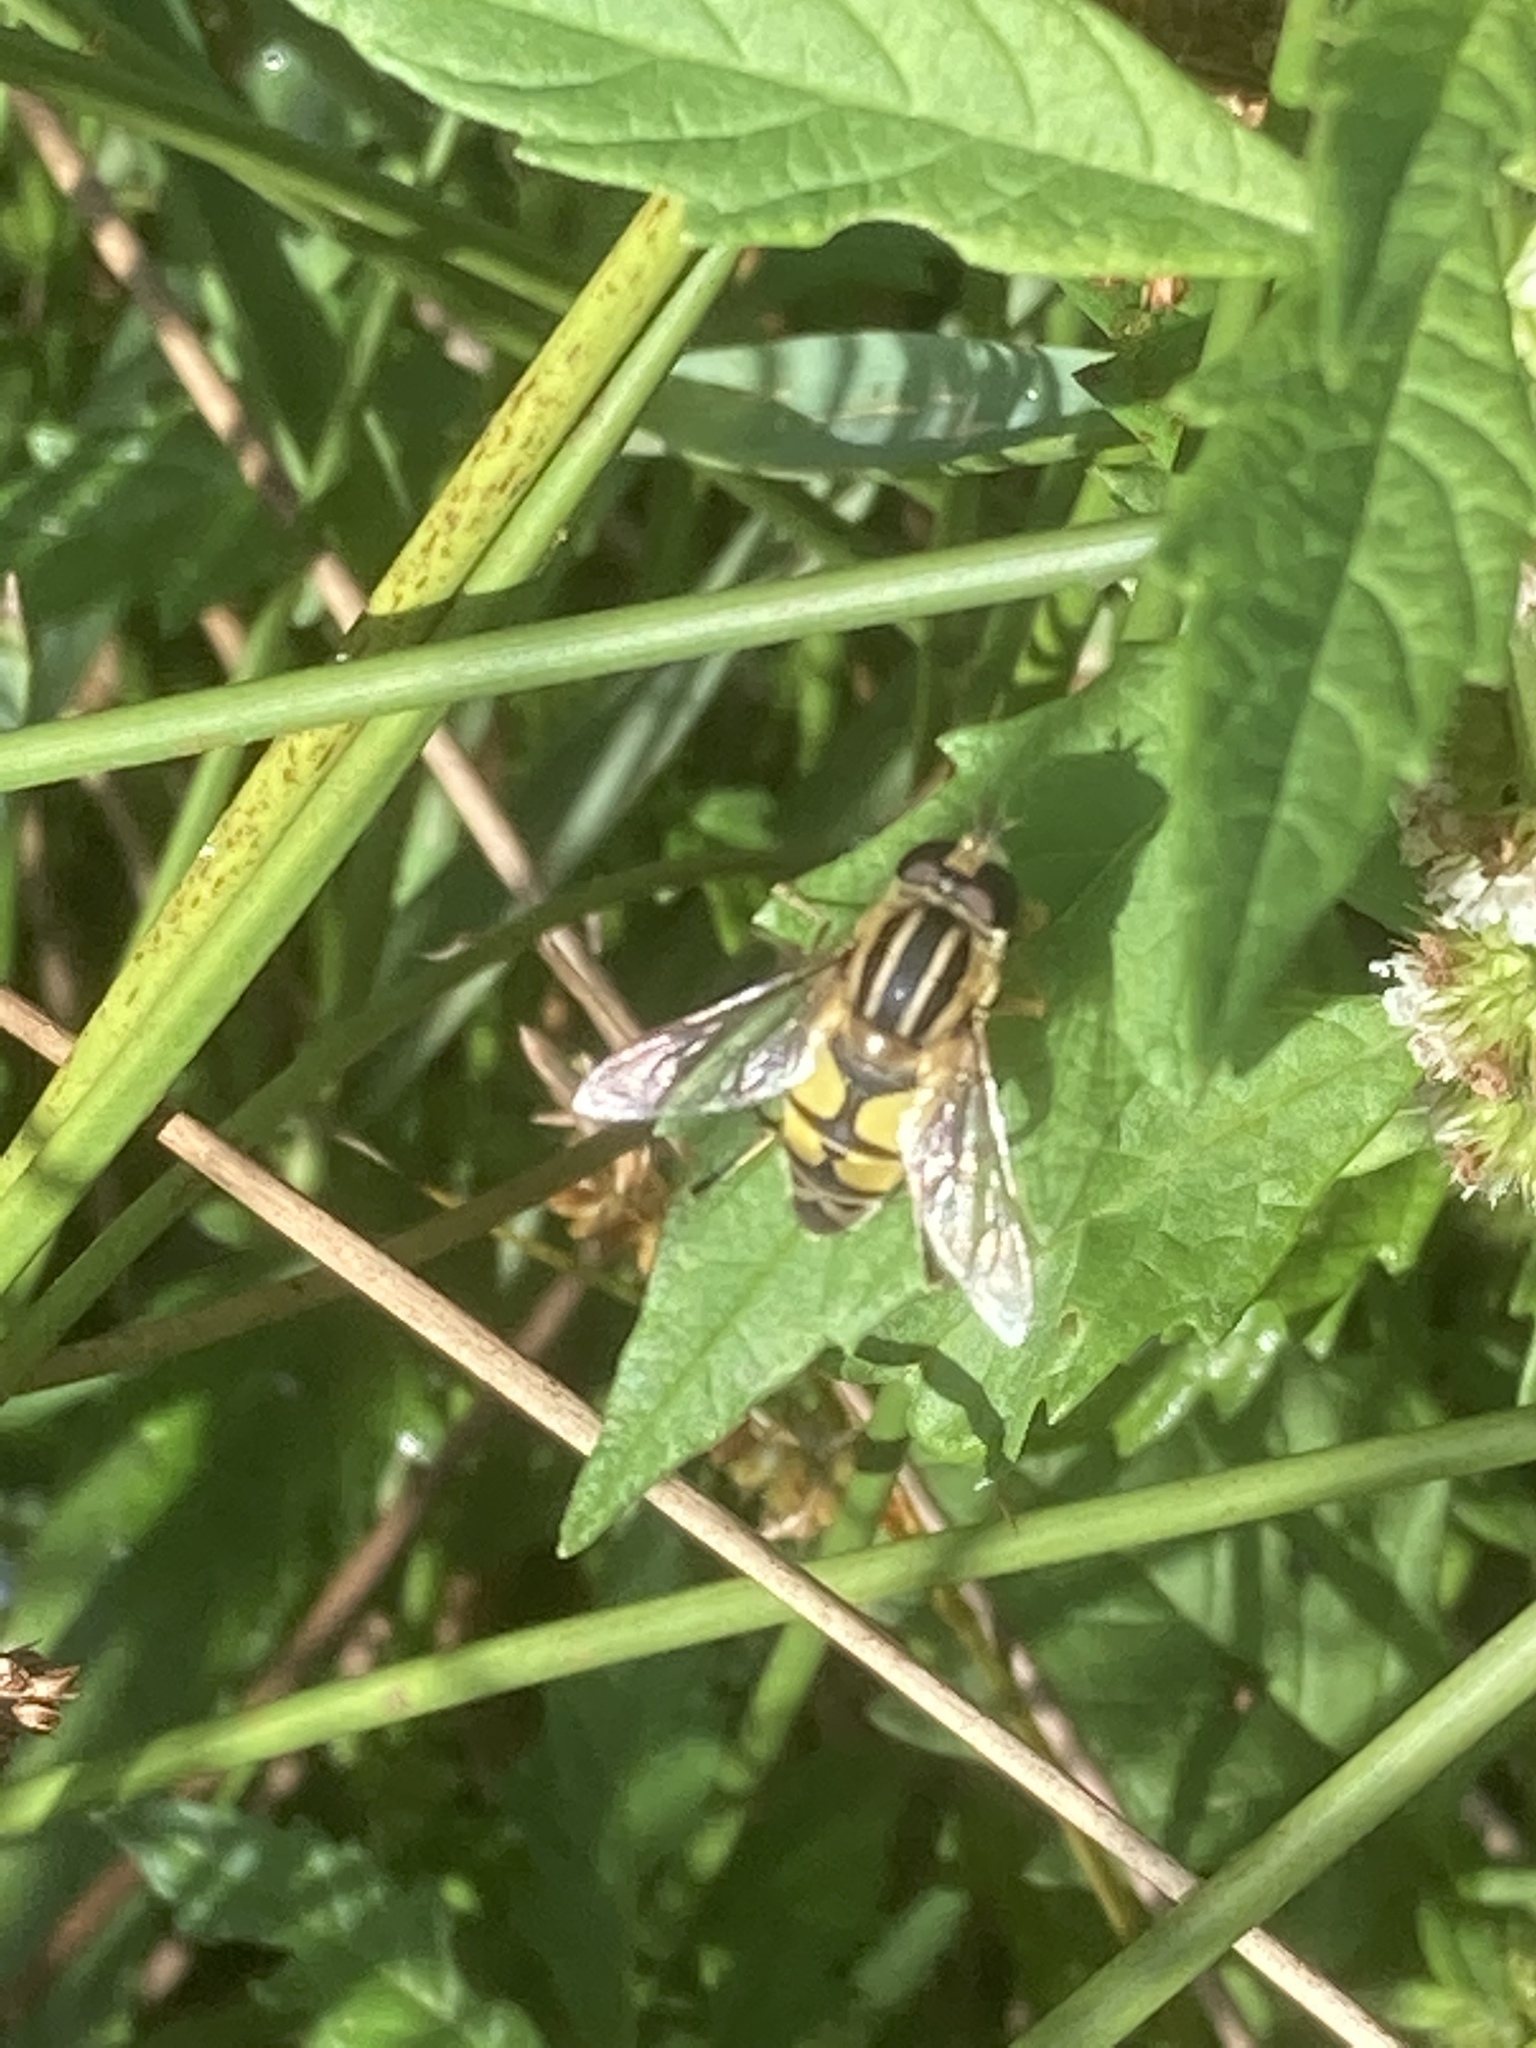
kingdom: Animalia
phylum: Arthropoda
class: Insecta
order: Diptera
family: Syrphidae
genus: Helophilus
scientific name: Helophilus trivittatus
